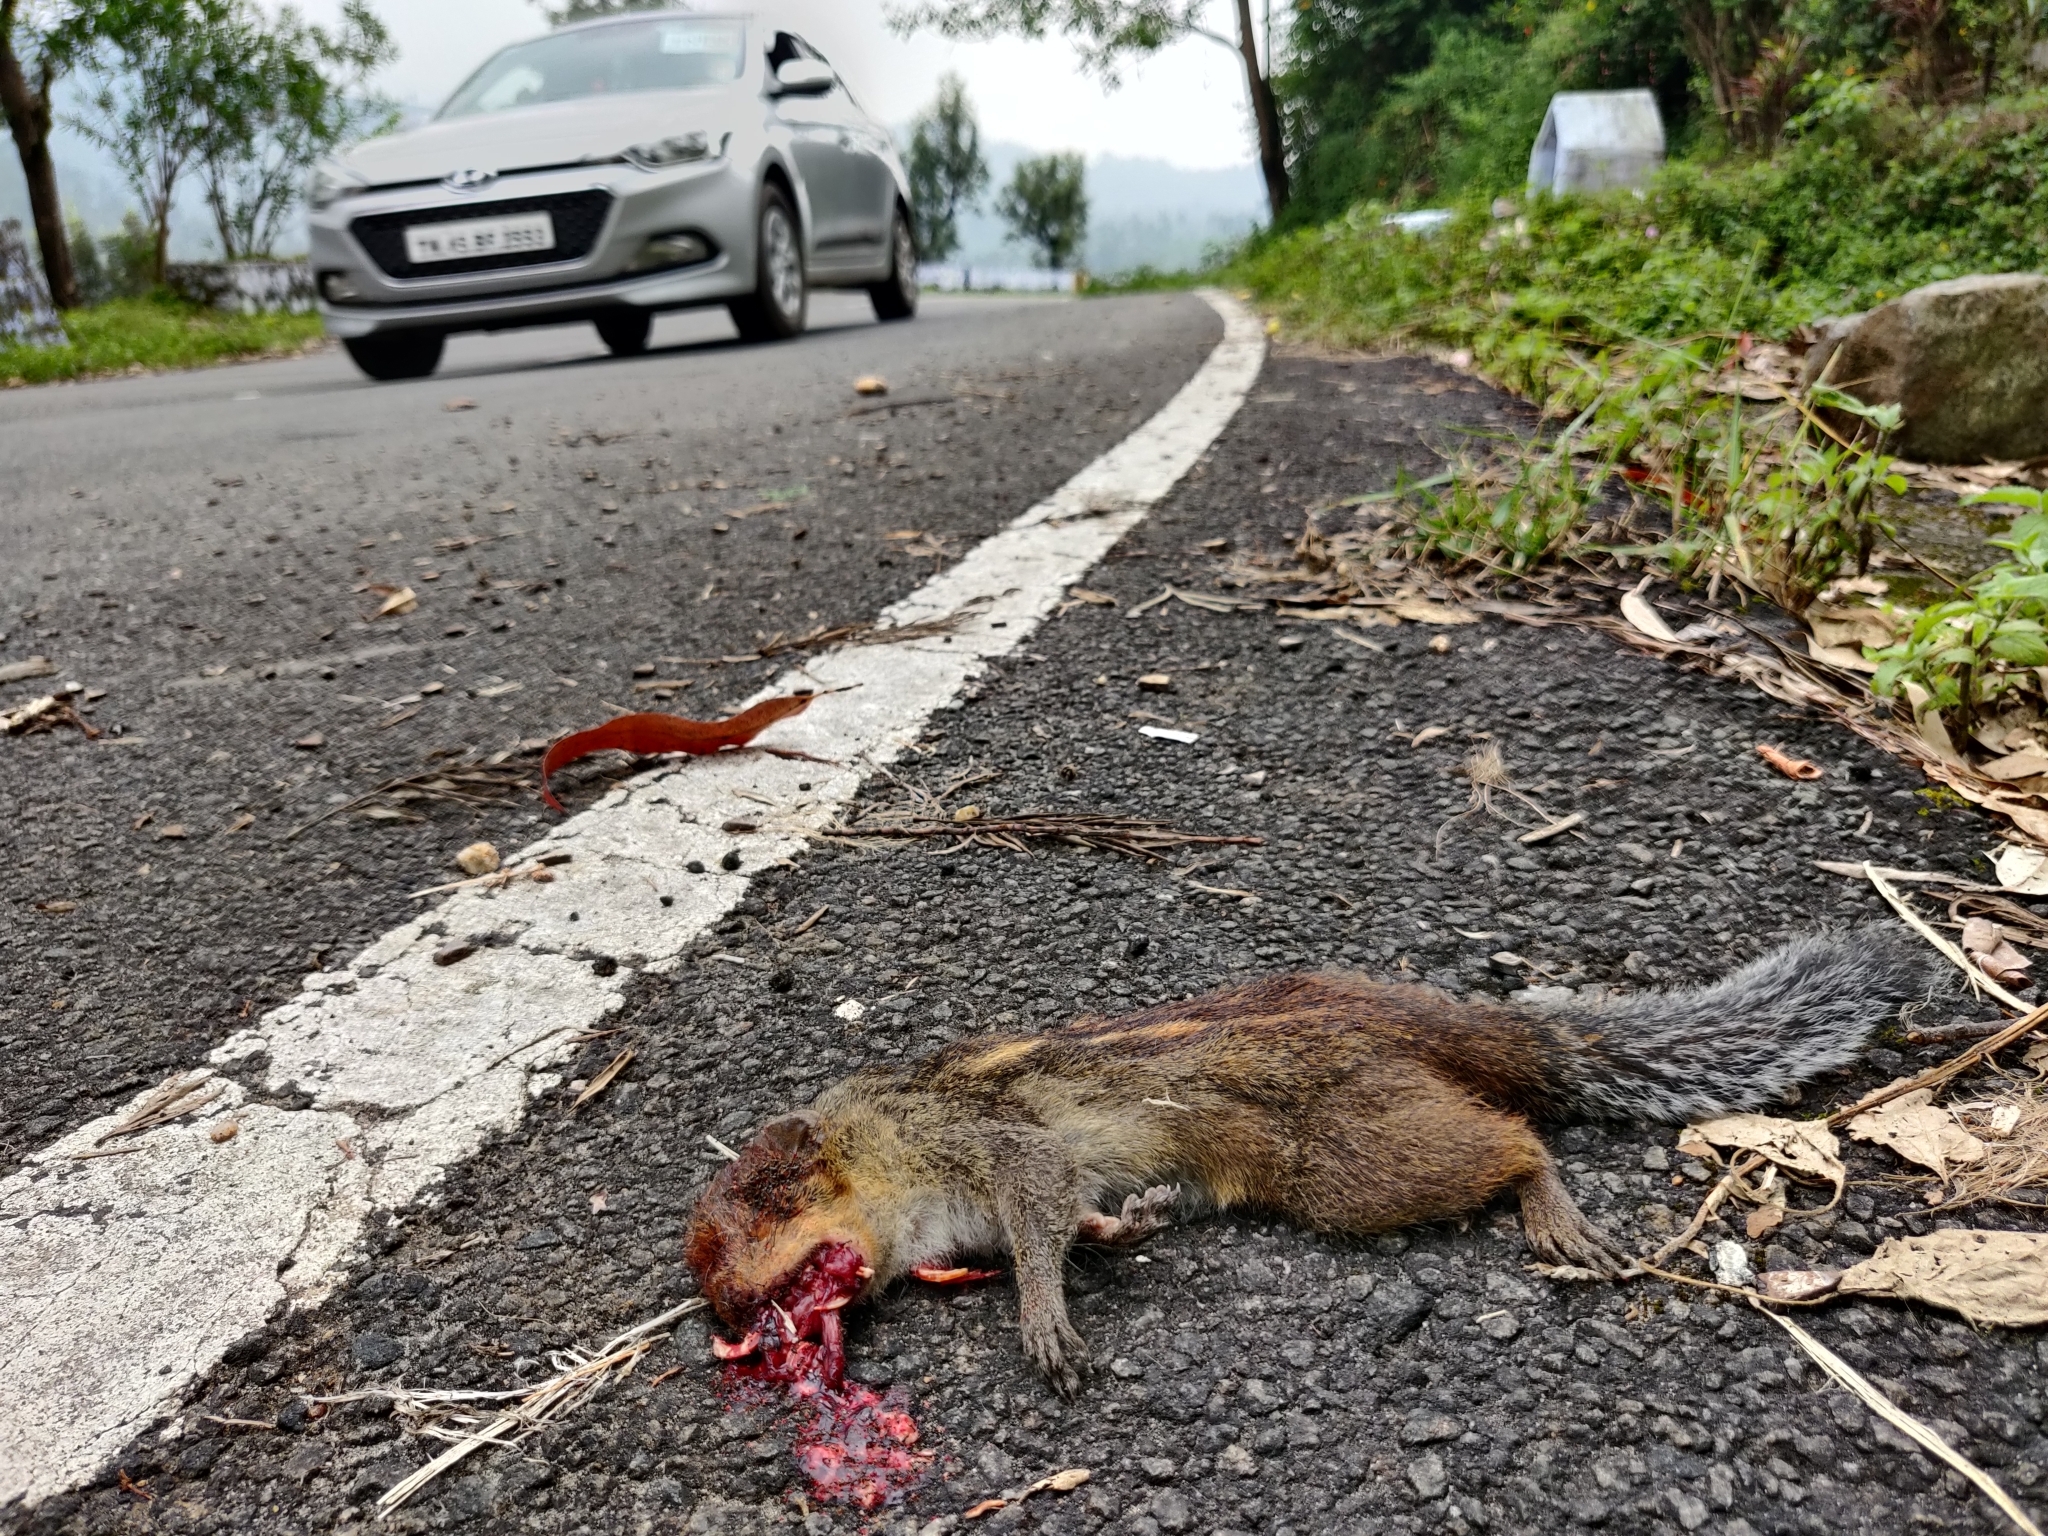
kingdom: Animalia
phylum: Chordata
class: Mammalia
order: Rodentia
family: Sciuridae
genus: Funambulus
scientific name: Funambulus tristriatus
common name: Jungle palm squirrel
